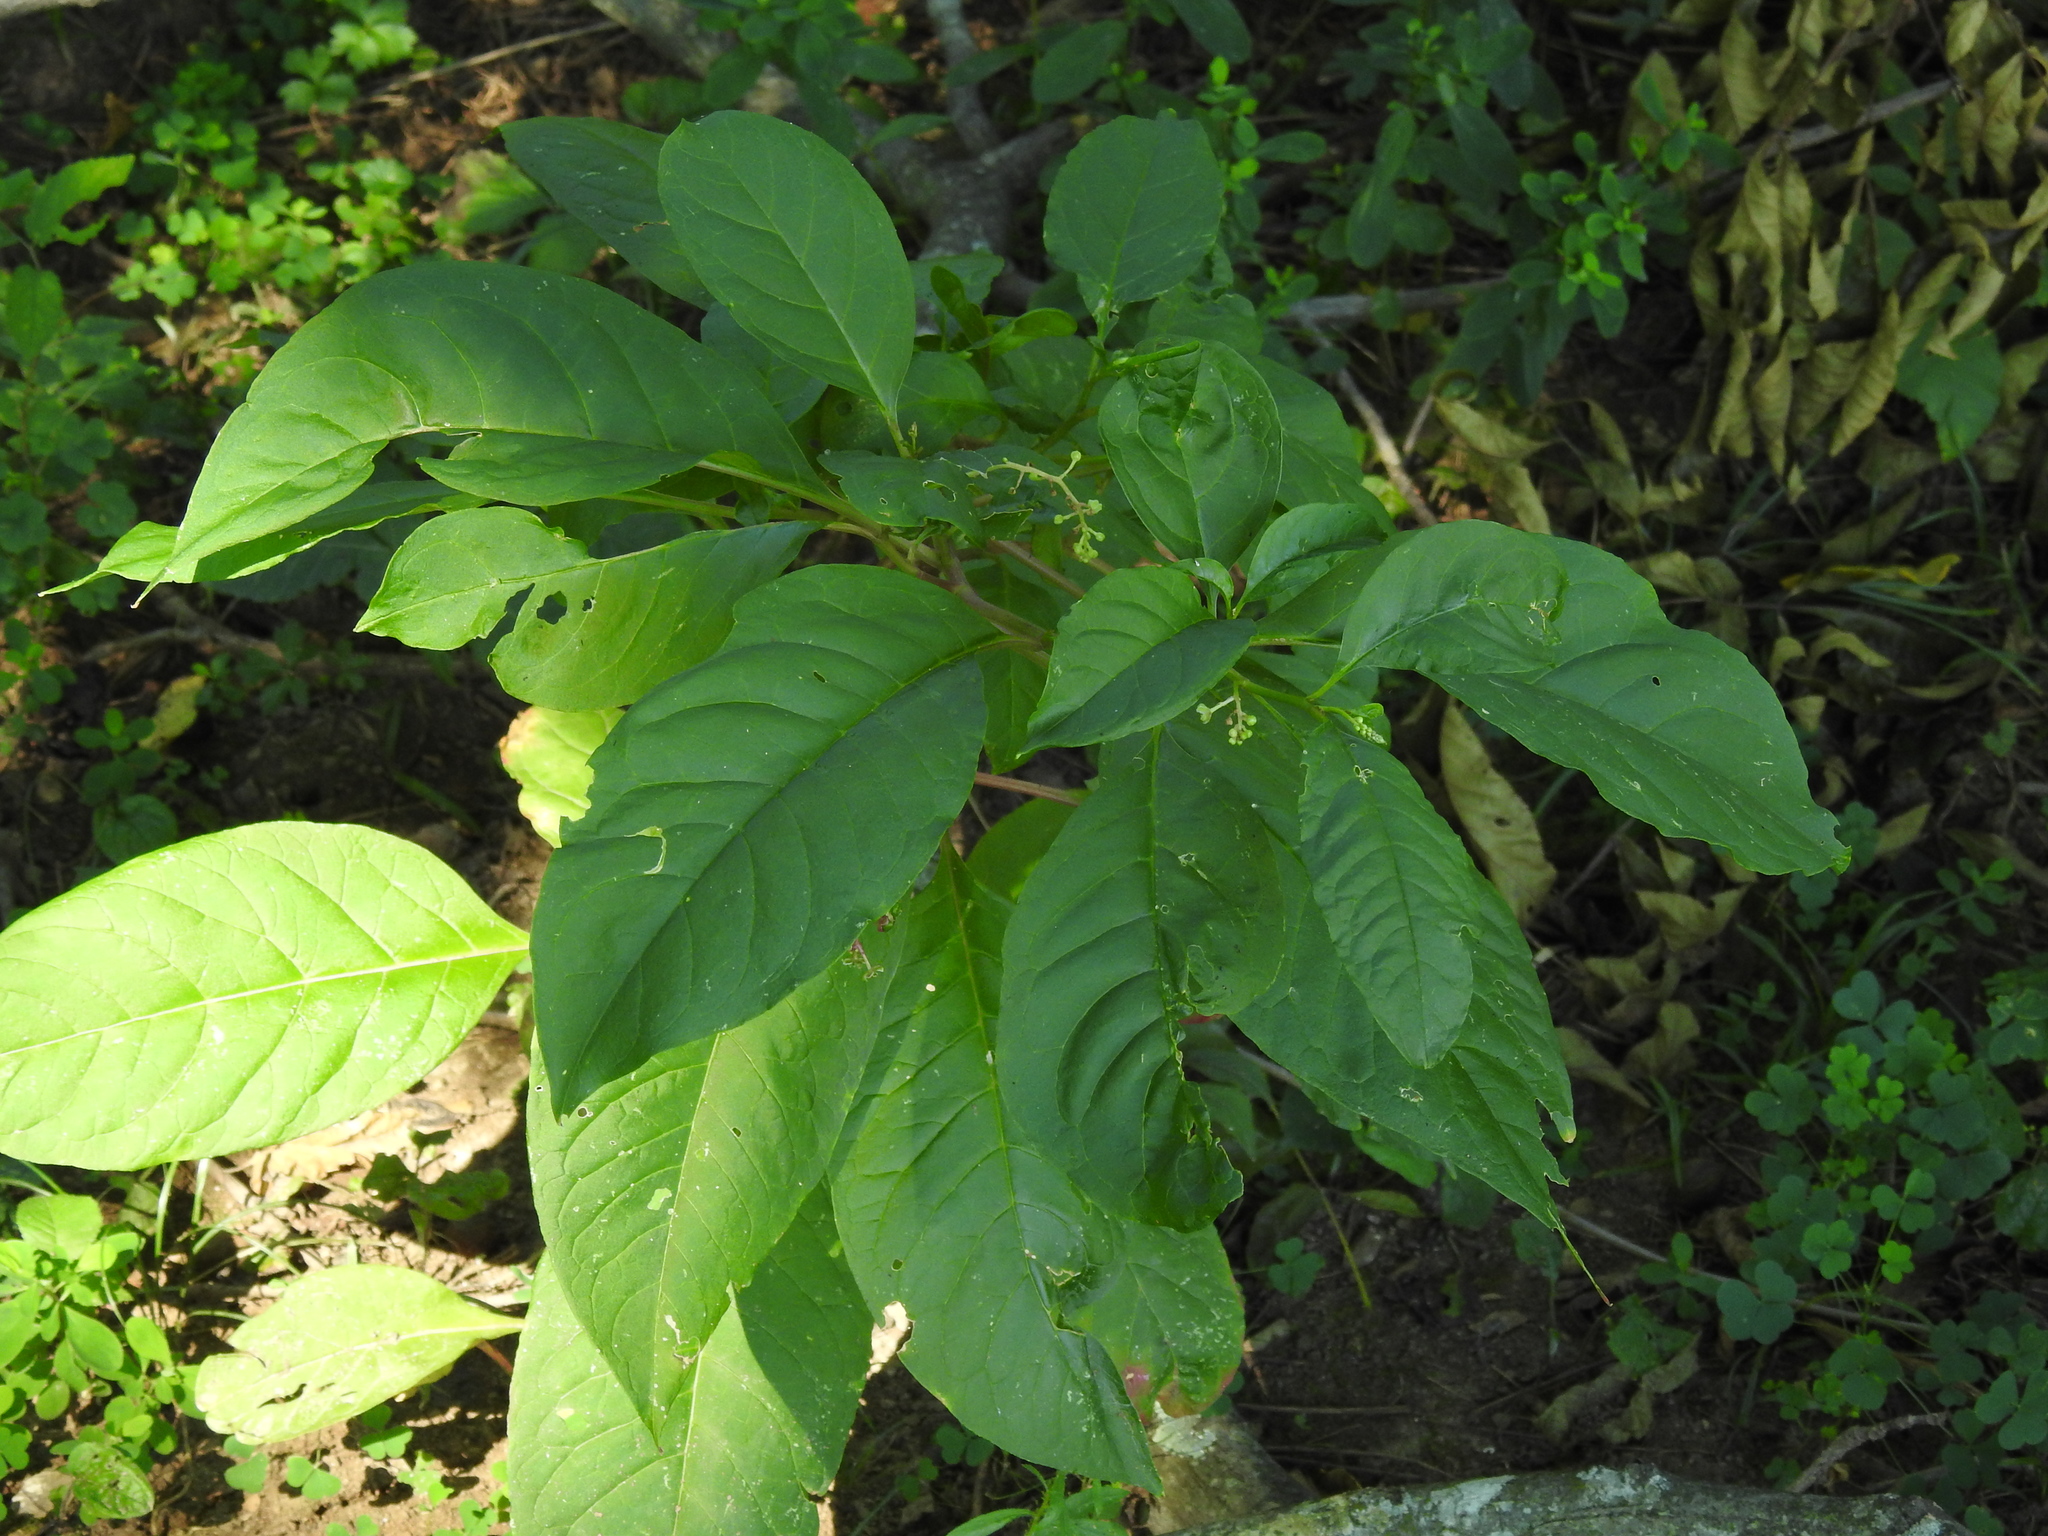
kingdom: Plantae
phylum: Tracheophyta
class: Magnoliopsida
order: Caryophyllales
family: Phytolaccaceae
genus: Phytolacca
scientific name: Phytolacca americana
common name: American pokeweed
